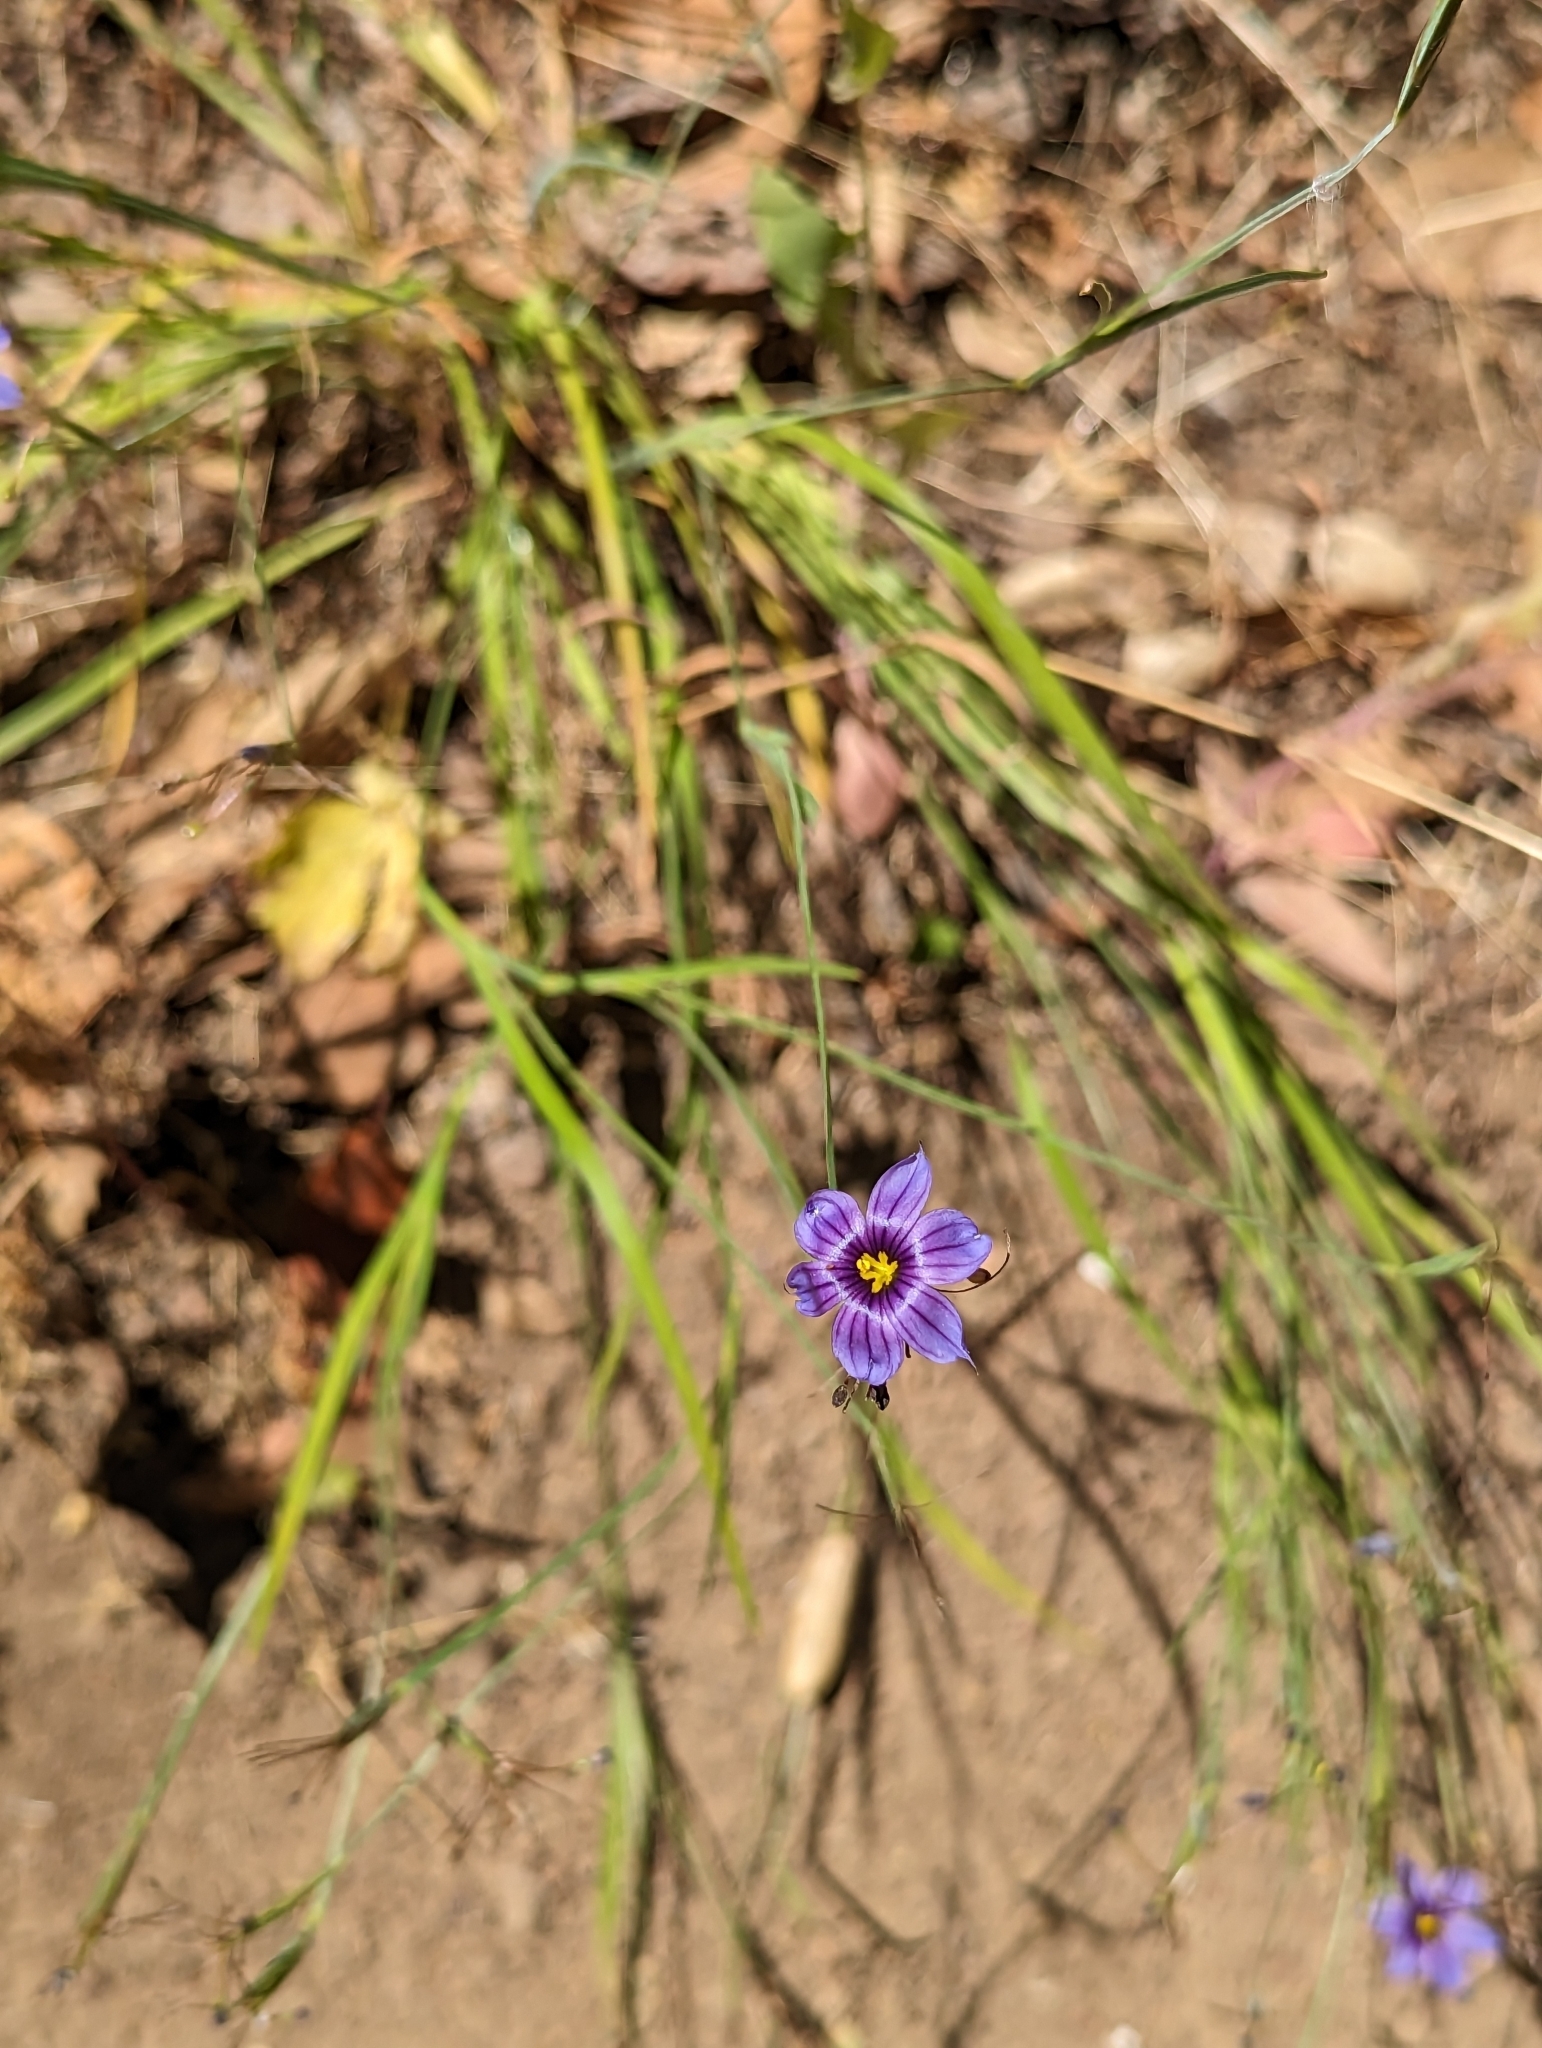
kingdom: Plantae
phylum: Tracheophyta
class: Liliopsida
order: Asparagales
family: Iridaceae
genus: Sisyrinchium
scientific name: Sisyrinchium bellum
